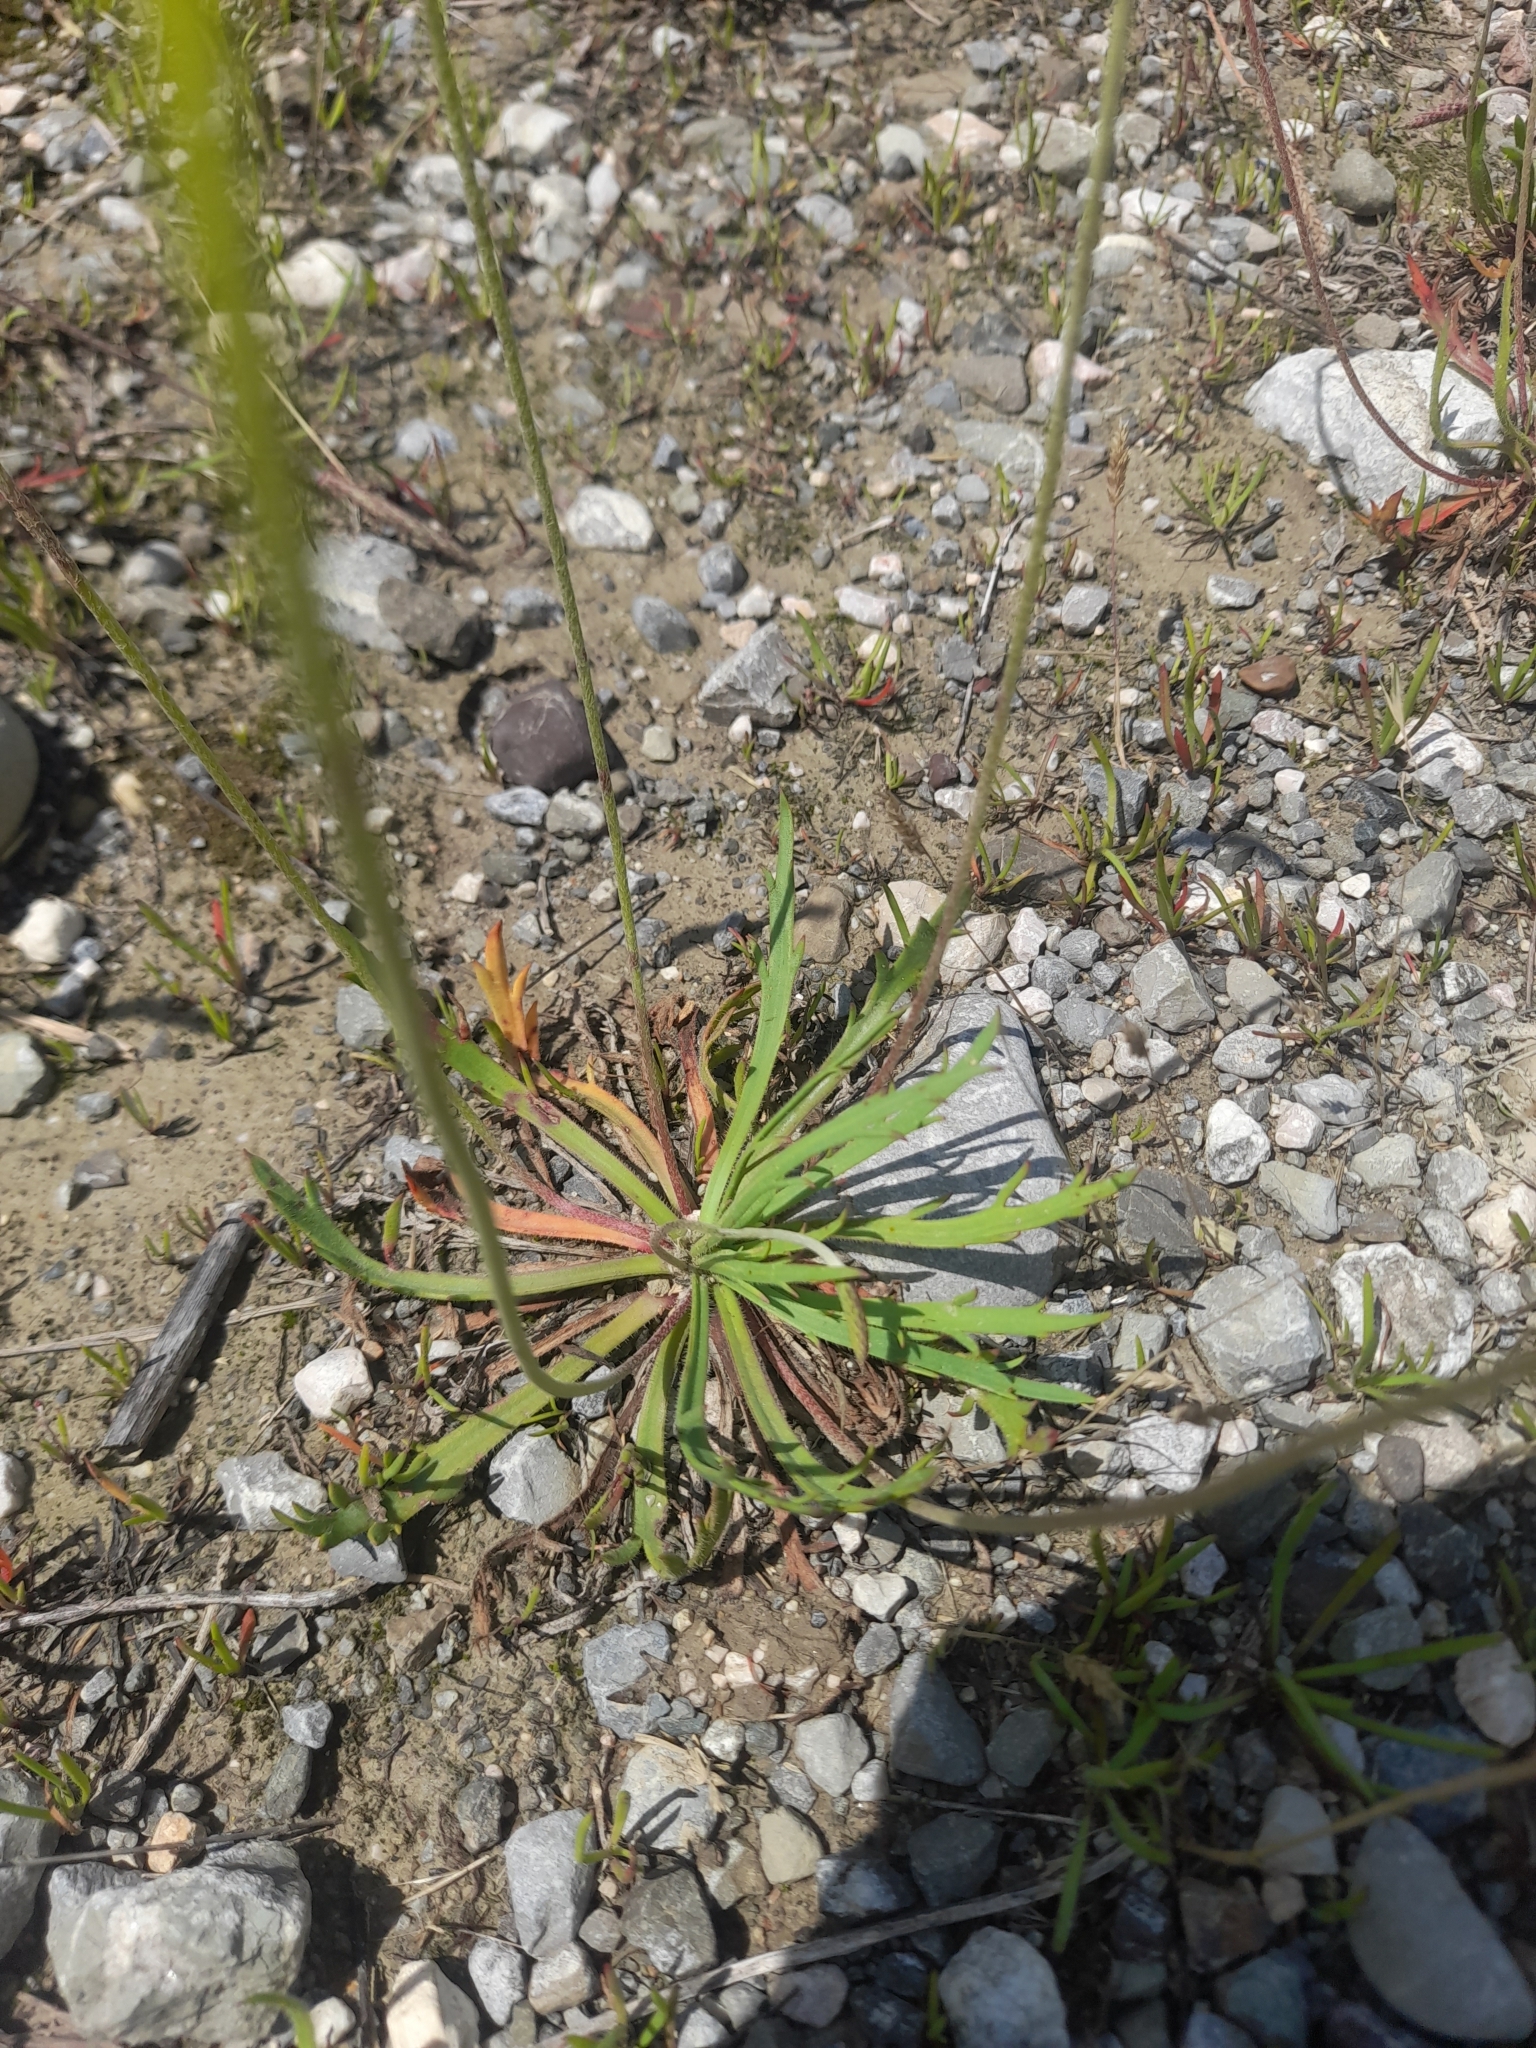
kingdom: Plantae
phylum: Tracheophyta
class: Magnoliopsida
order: Lamiales
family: Plantaginaceae
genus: Plantago
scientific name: Plantago coronopus
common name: Buck's-horn plantain
